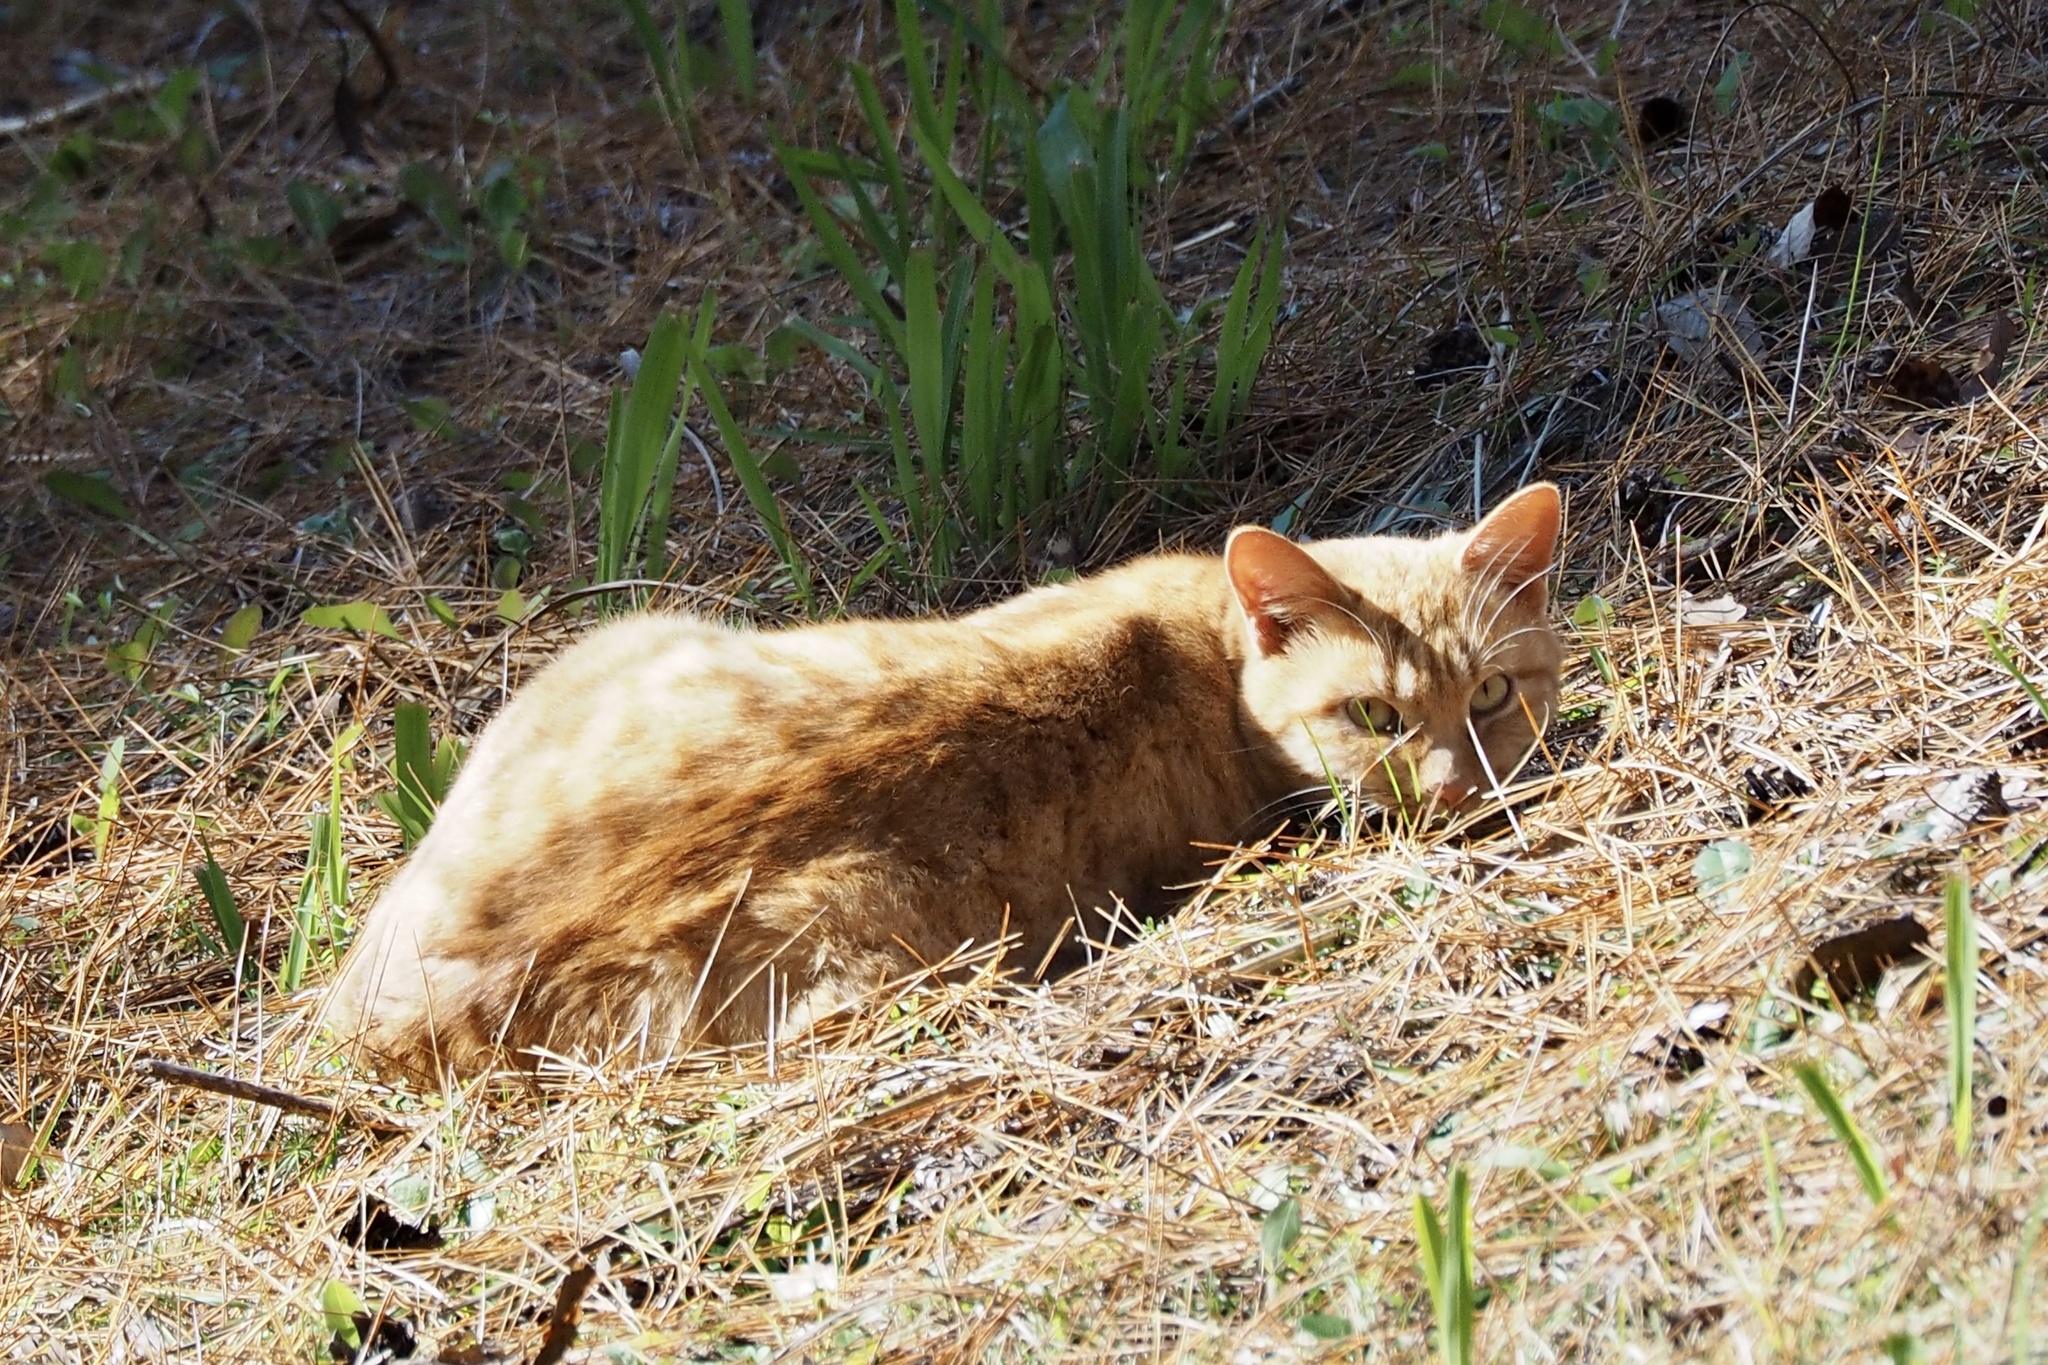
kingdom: Animalia
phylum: Chordata
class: Mammalia
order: Carnivora
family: Felidae
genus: Felis
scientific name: Felis catus
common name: Domestic cat
